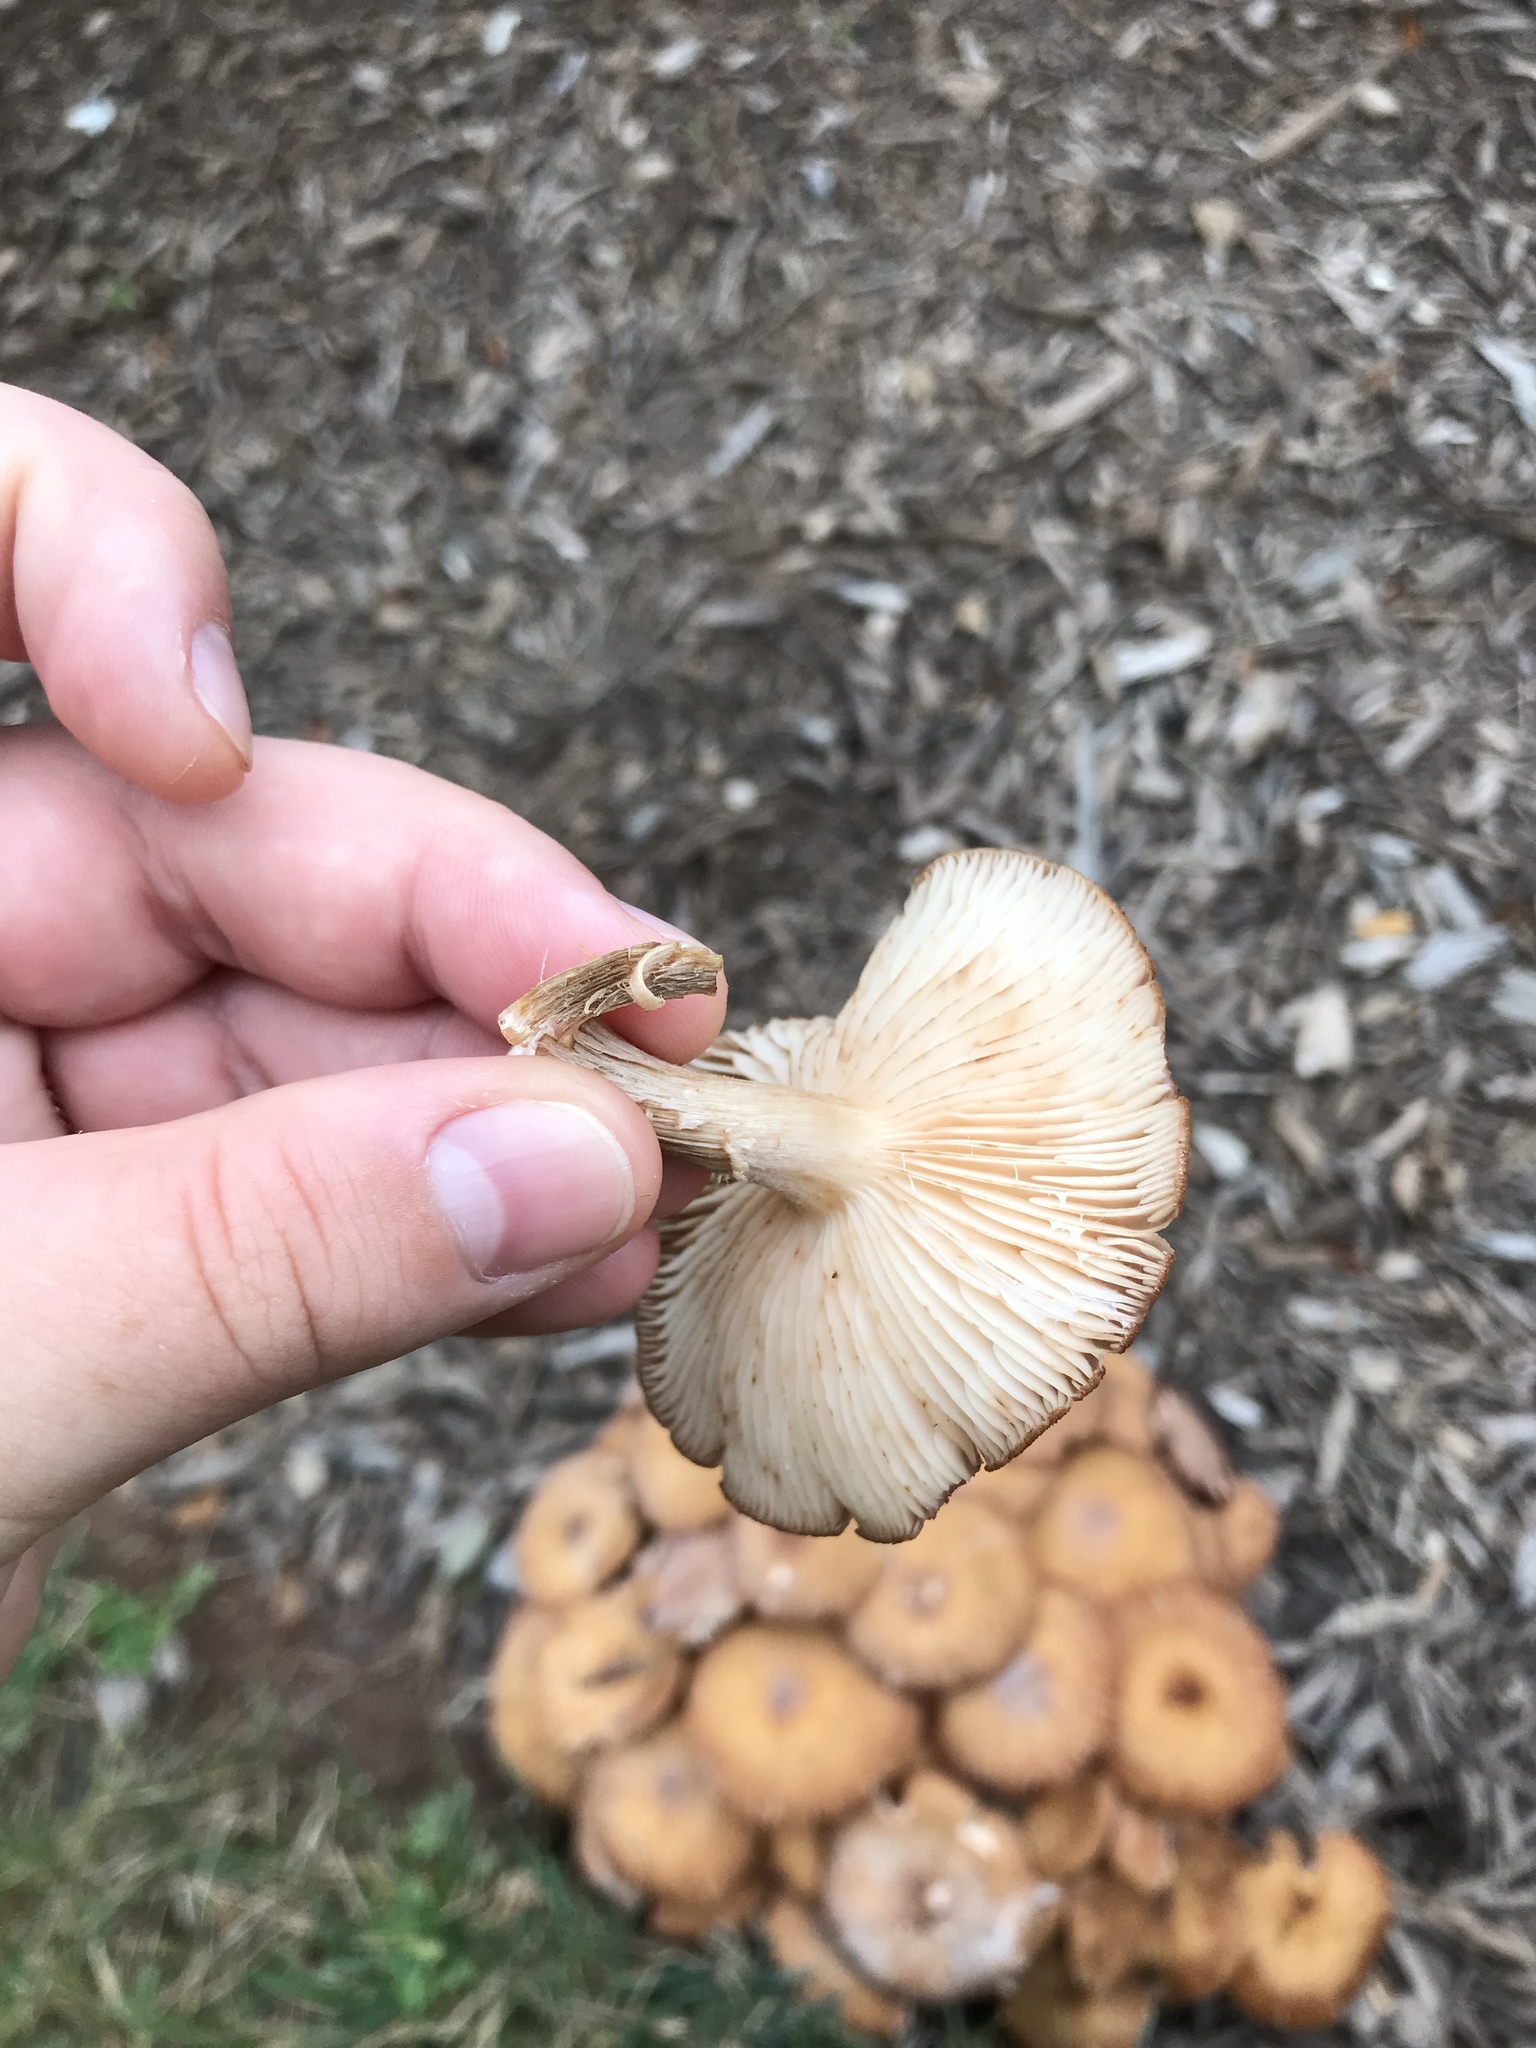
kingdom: Fungi
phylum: Basidiomycota
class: Agaricomycetes
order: Agaricales
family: Physalacriaceae
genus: Desarmillaria
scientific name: Desarmillaria caespitosa
